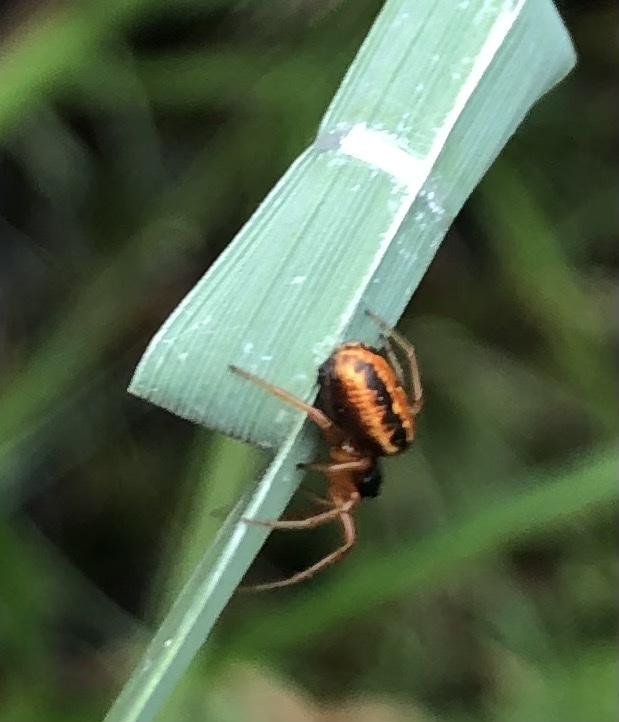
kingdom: Animalia
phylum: Arthropoda
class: Arachnida
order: Araneae
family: Araneidae
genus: Hypsosinga
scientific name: Hypsosinga heri
